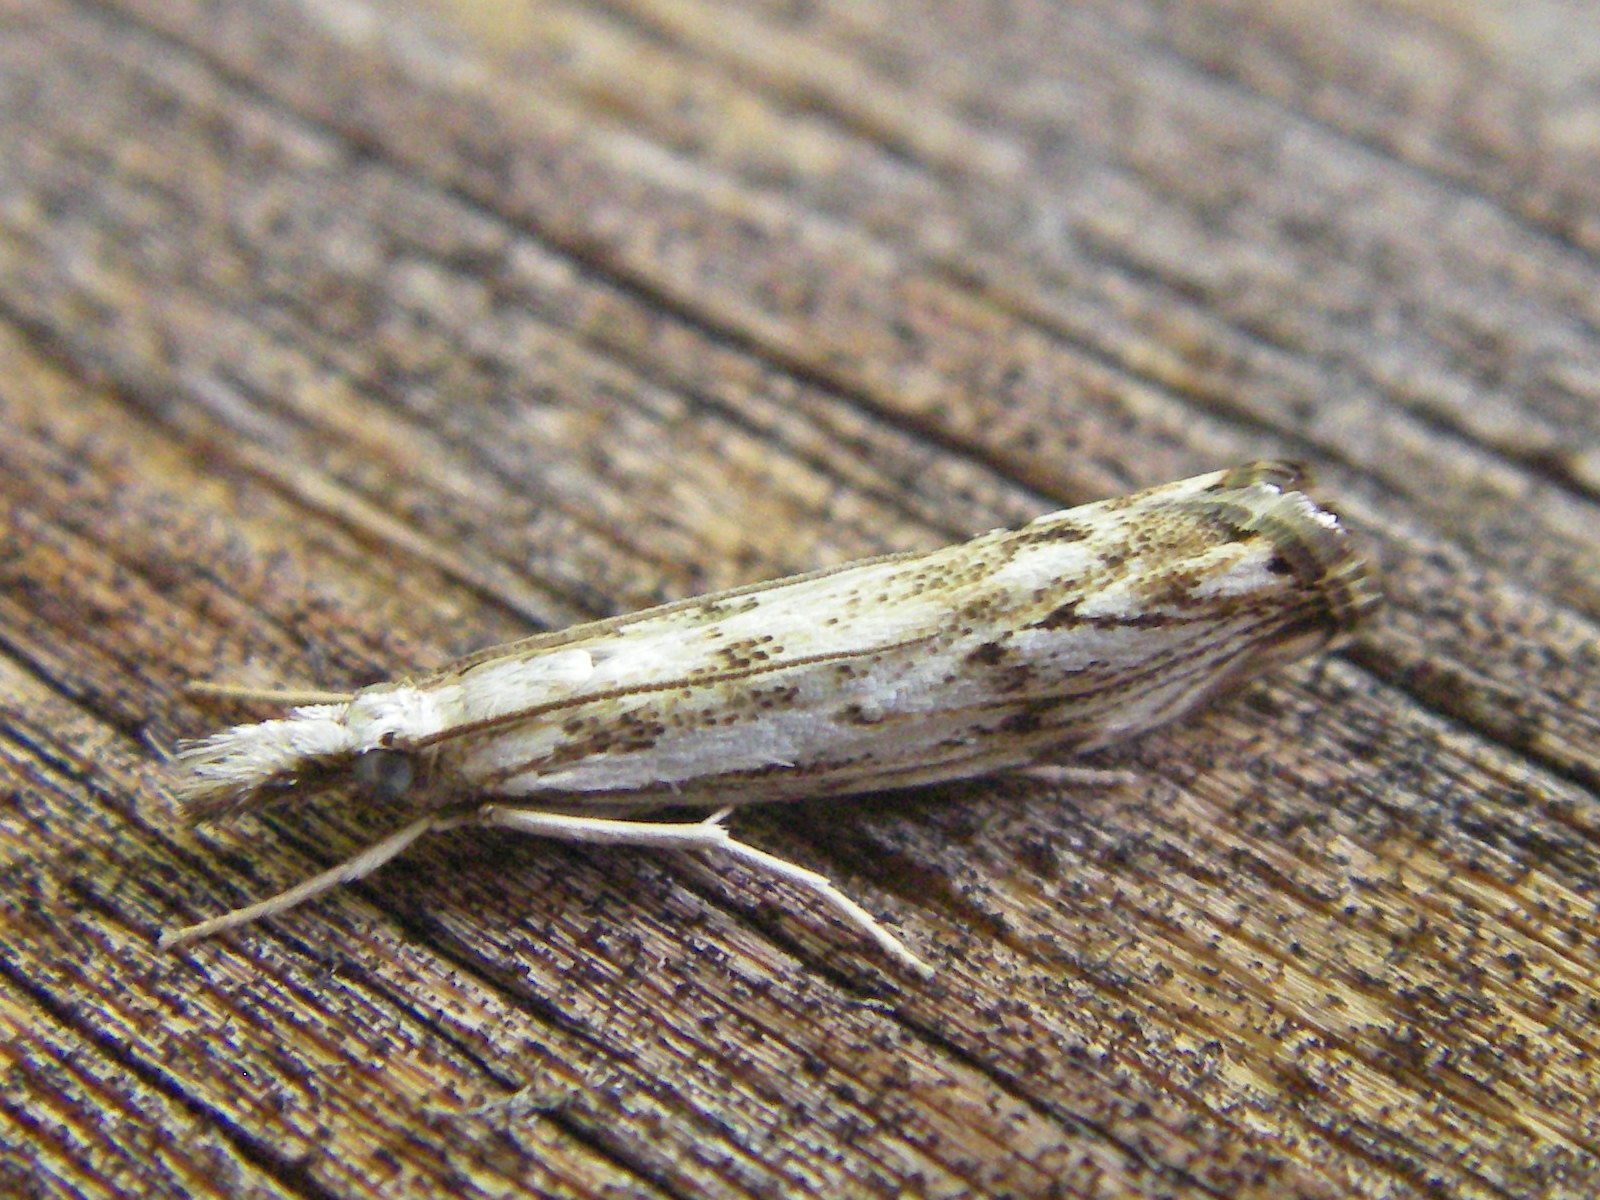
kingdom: Animalia
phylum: Arthropoda
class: Insecta
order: Lepidoptera
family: Crambidae
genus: Catoptria
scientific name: Catoptria falsella
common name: Chequered grass-veneer
